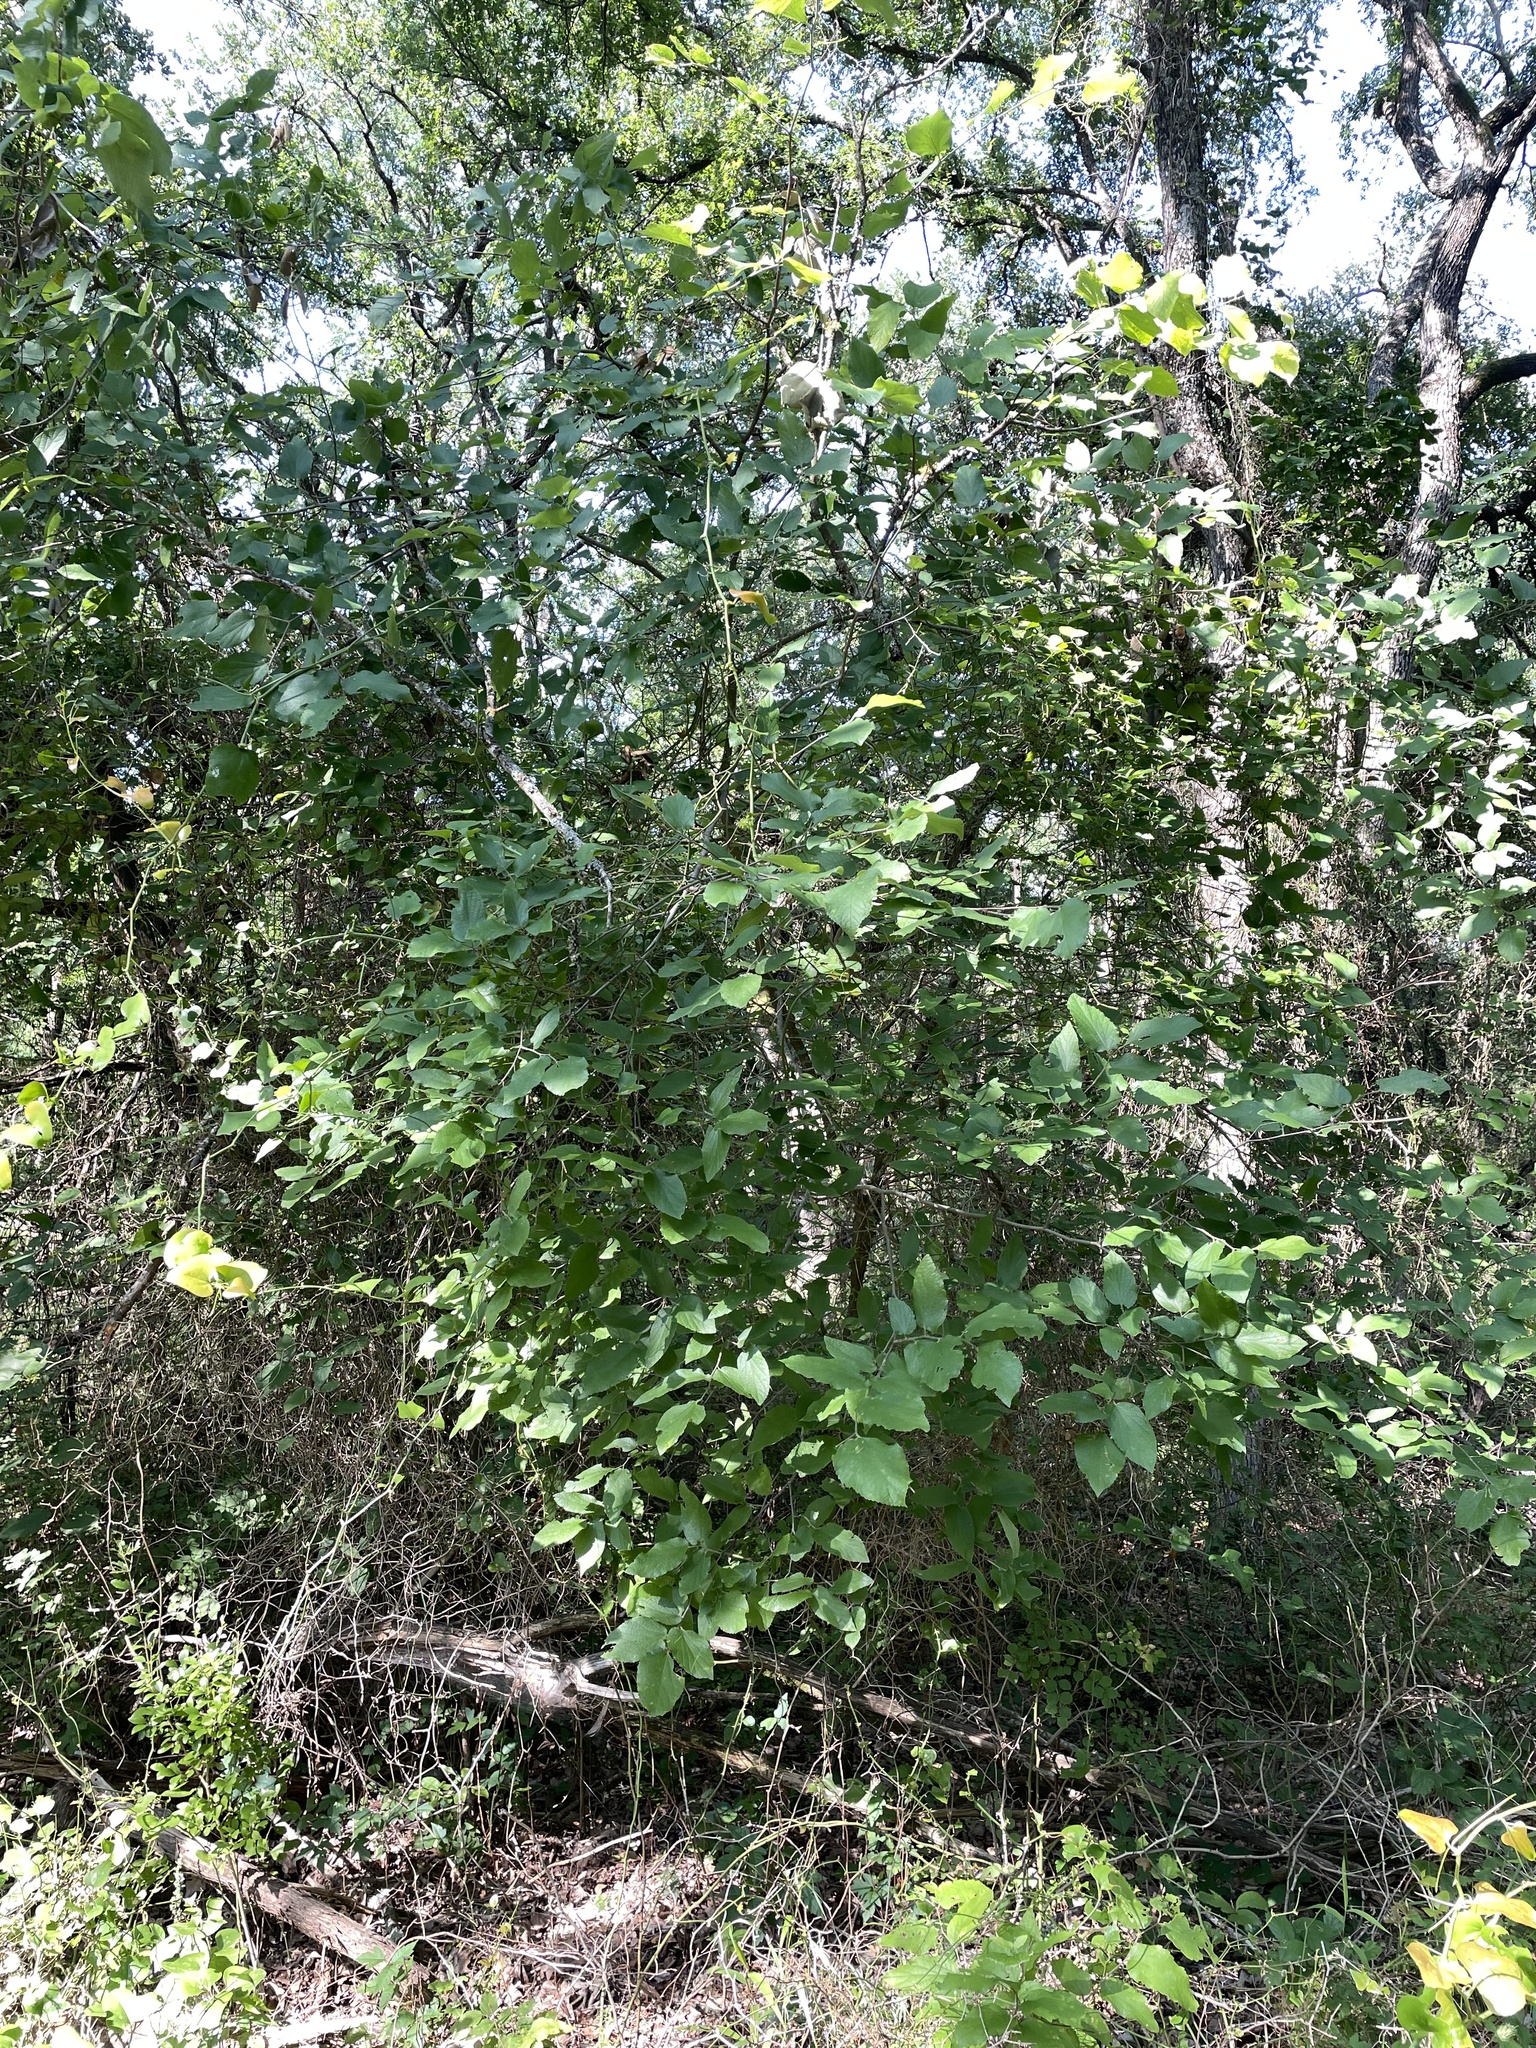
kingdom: Plantae
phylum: Tracheophyta
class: Magnoliopsida
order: Rosales
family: Cannabaceae
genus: Celtis
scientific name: Celtis reticulata
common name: Netleaf hackberry
